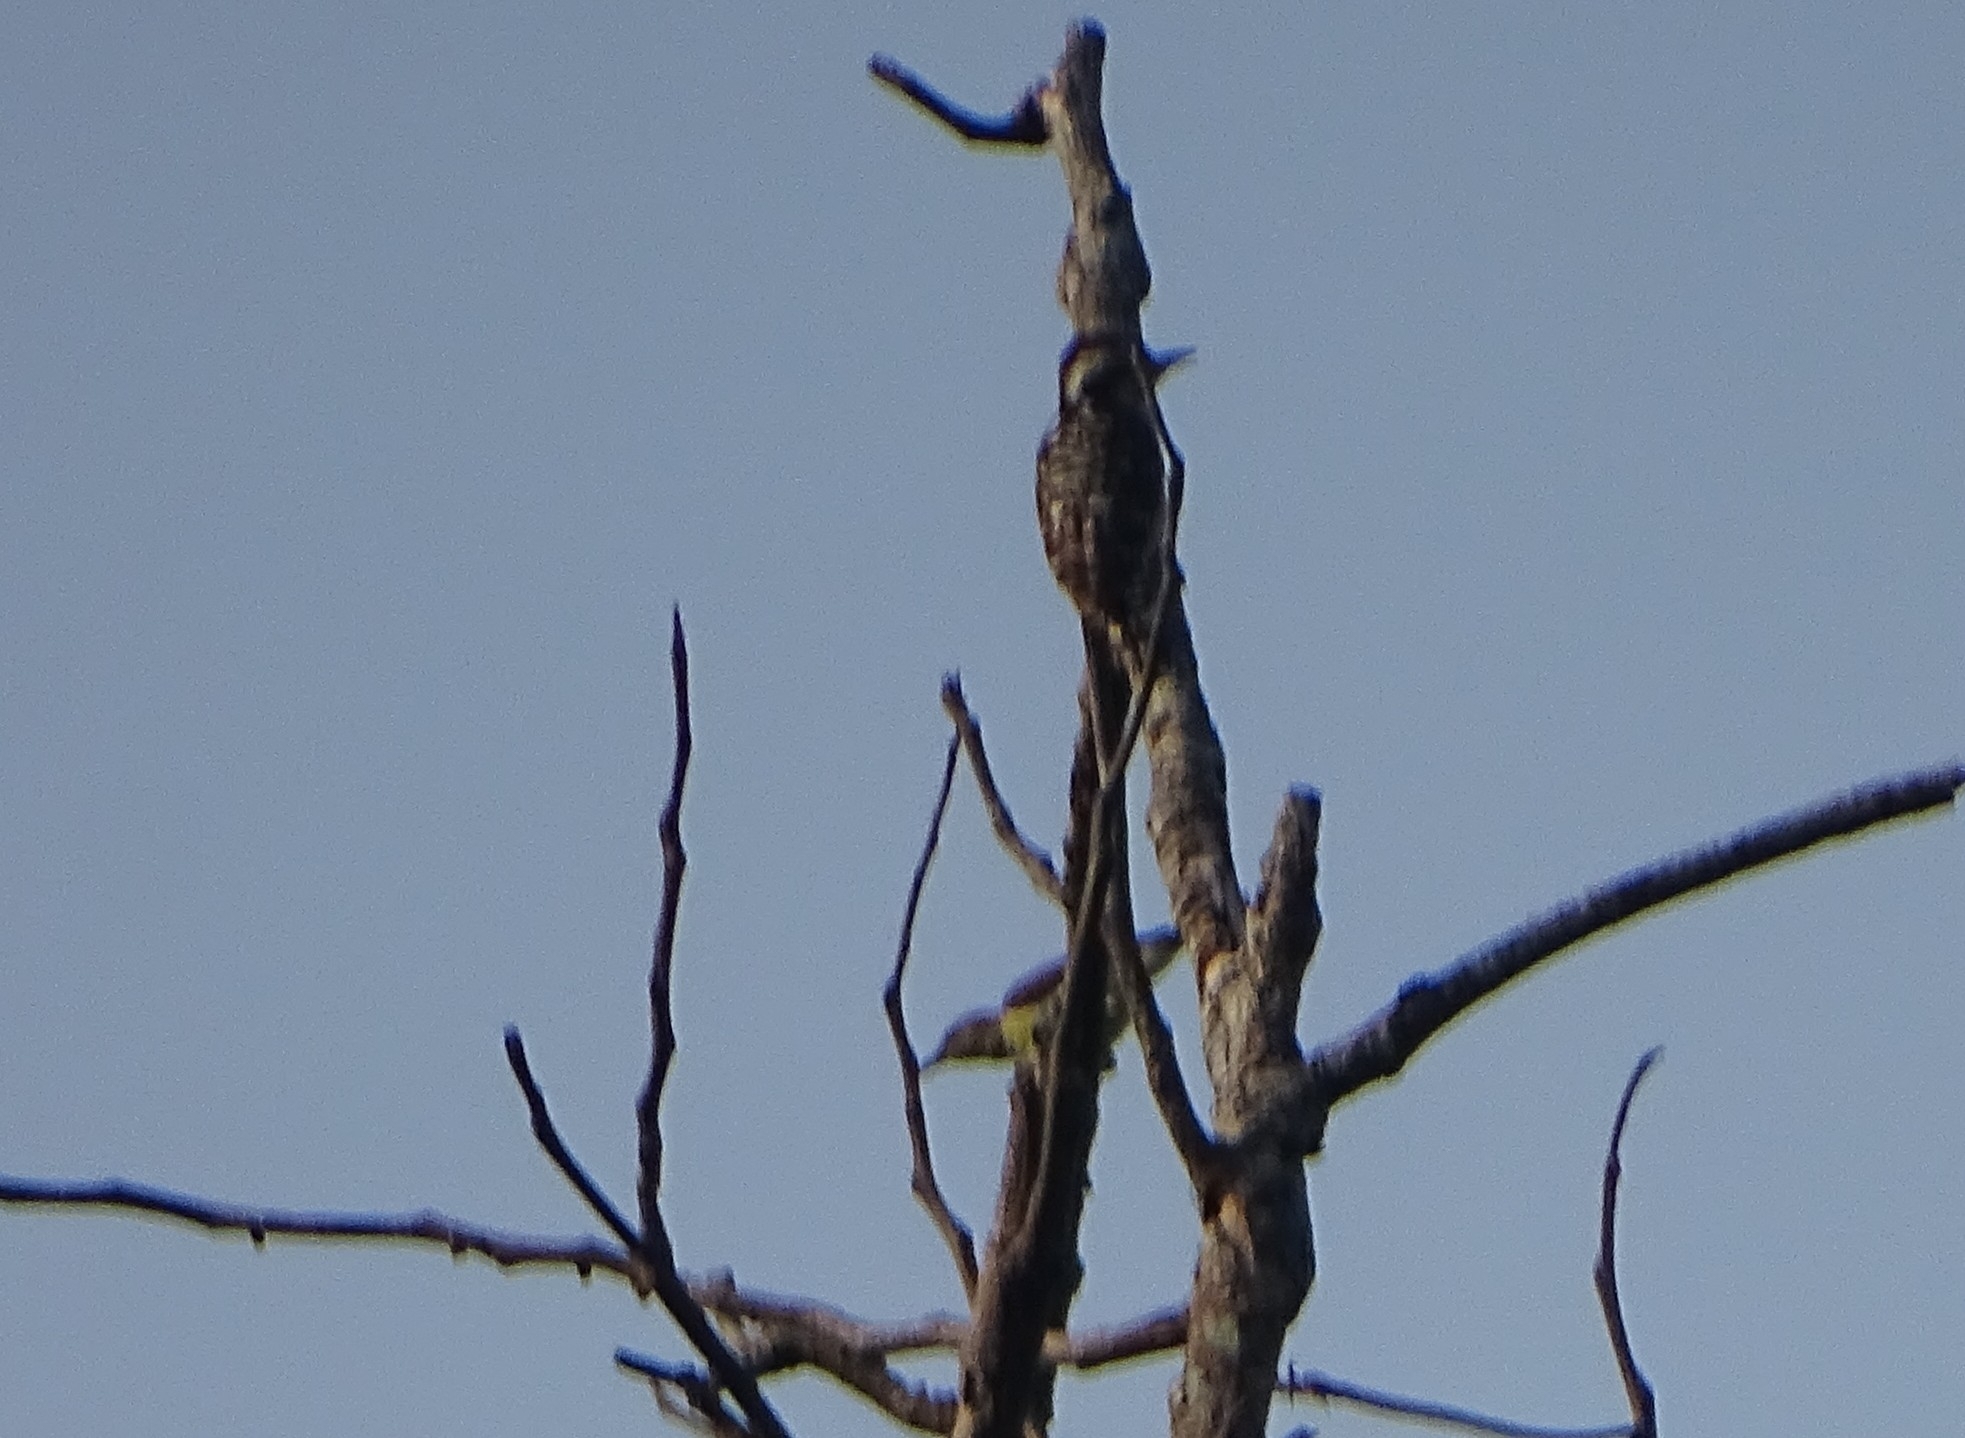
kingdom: Animalia
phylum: Chordata
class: Aves
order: Piciformes
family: Picidae
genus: Yungipicus
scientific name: Yungipicus nanus
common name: Brown-capped pygmy woodpecker
